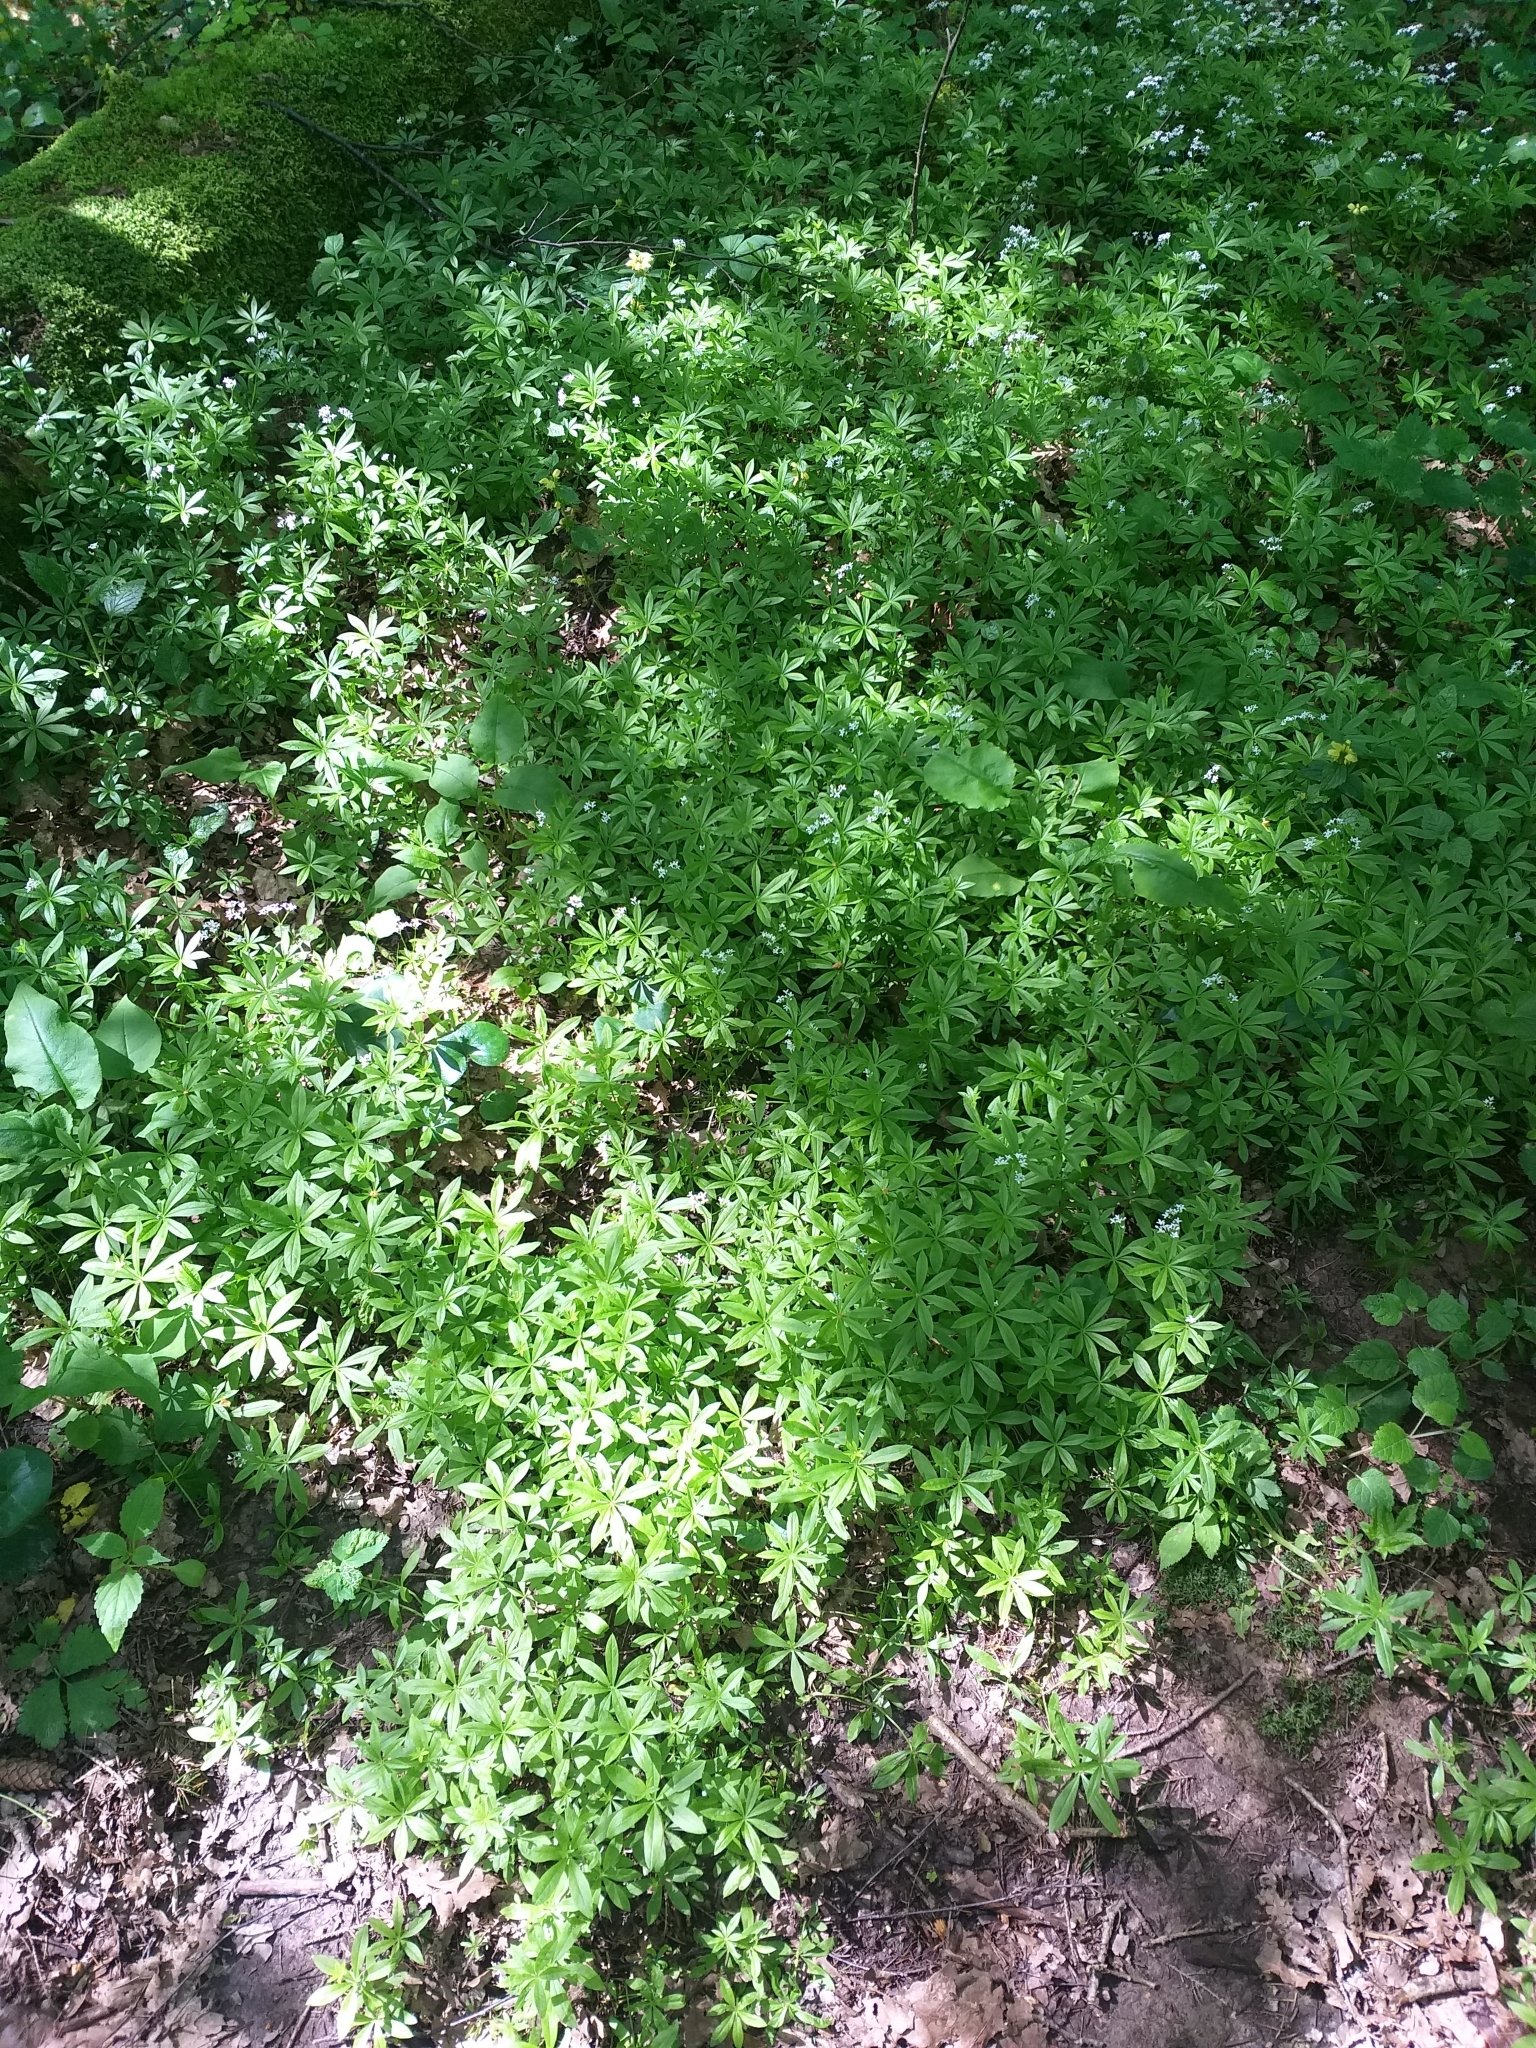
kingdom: Plantae
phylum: Tracheophyta
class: Magnoliopsida
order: Gentianales
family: Rubiaceae
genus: Galium
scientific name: Galium odoratum
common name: Sweet woodruff
